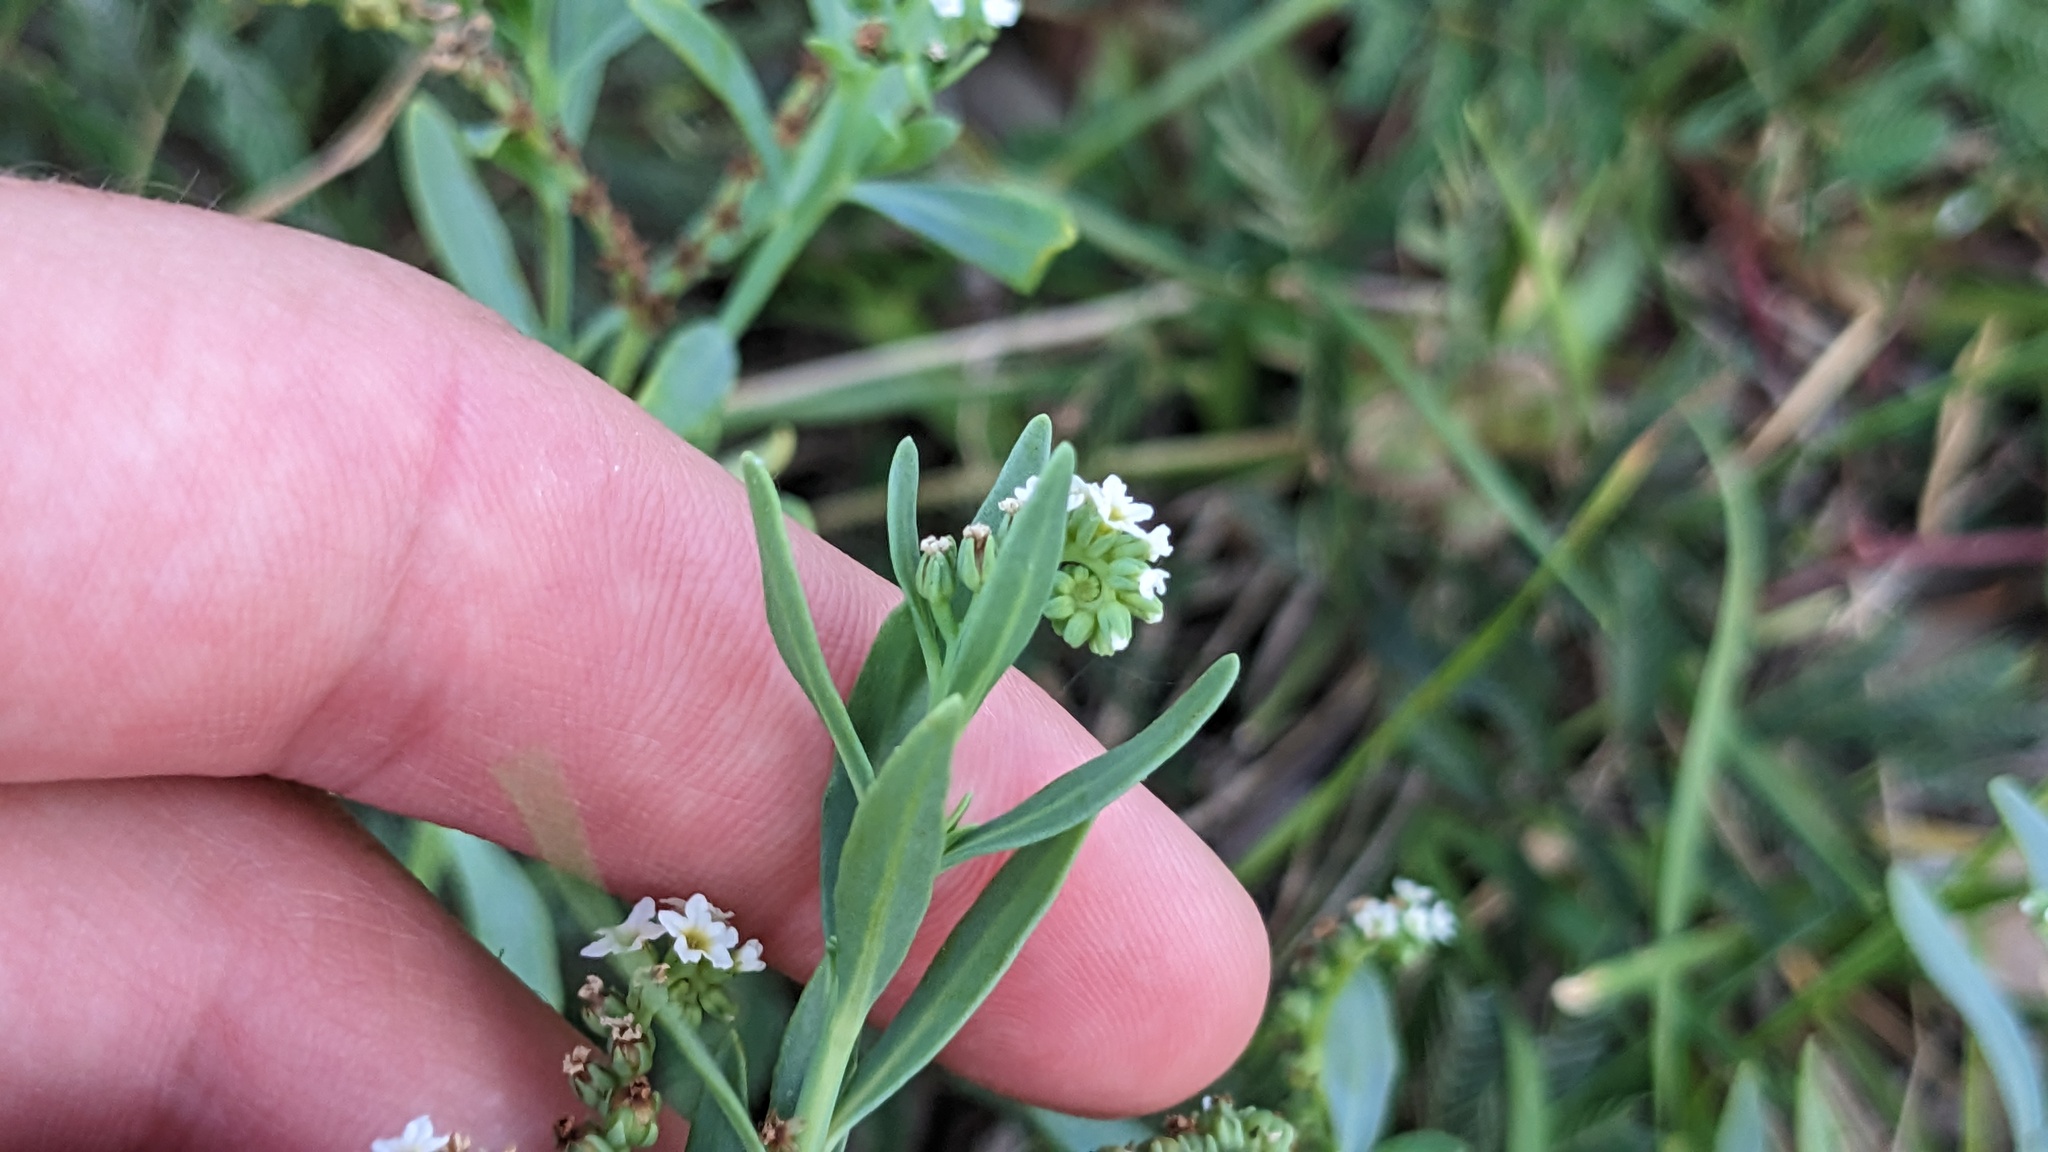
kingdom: Plantae
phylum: Tracheophyta
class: Magnoliopsida
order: Boraginales
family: Heliotropiaceae
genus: Heliotropium
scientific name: Heliotropium curassavicum
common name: Seaside heliotrope
